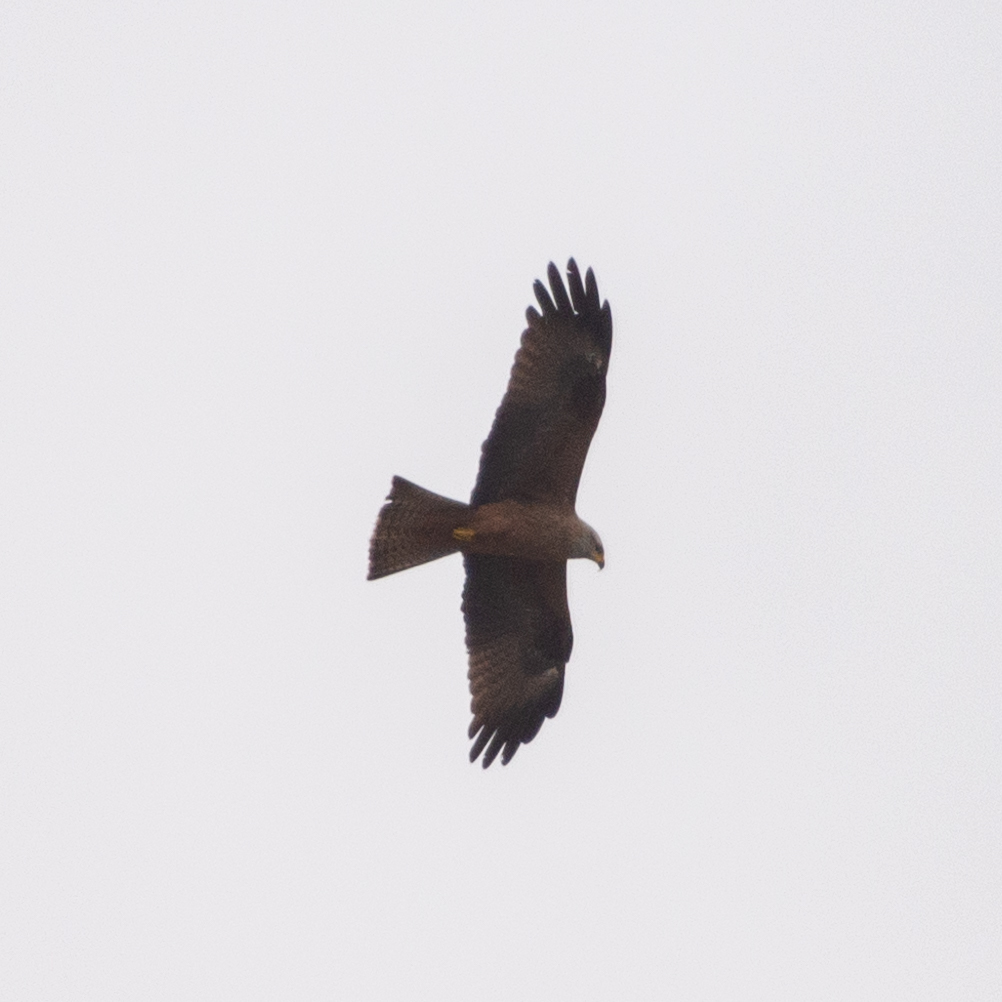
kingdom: Animalia
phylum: Chordata
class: Aves
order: Accipitriformes
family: Accipitridae
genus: Milvus
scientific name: Milvus migrans
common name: Black kite
